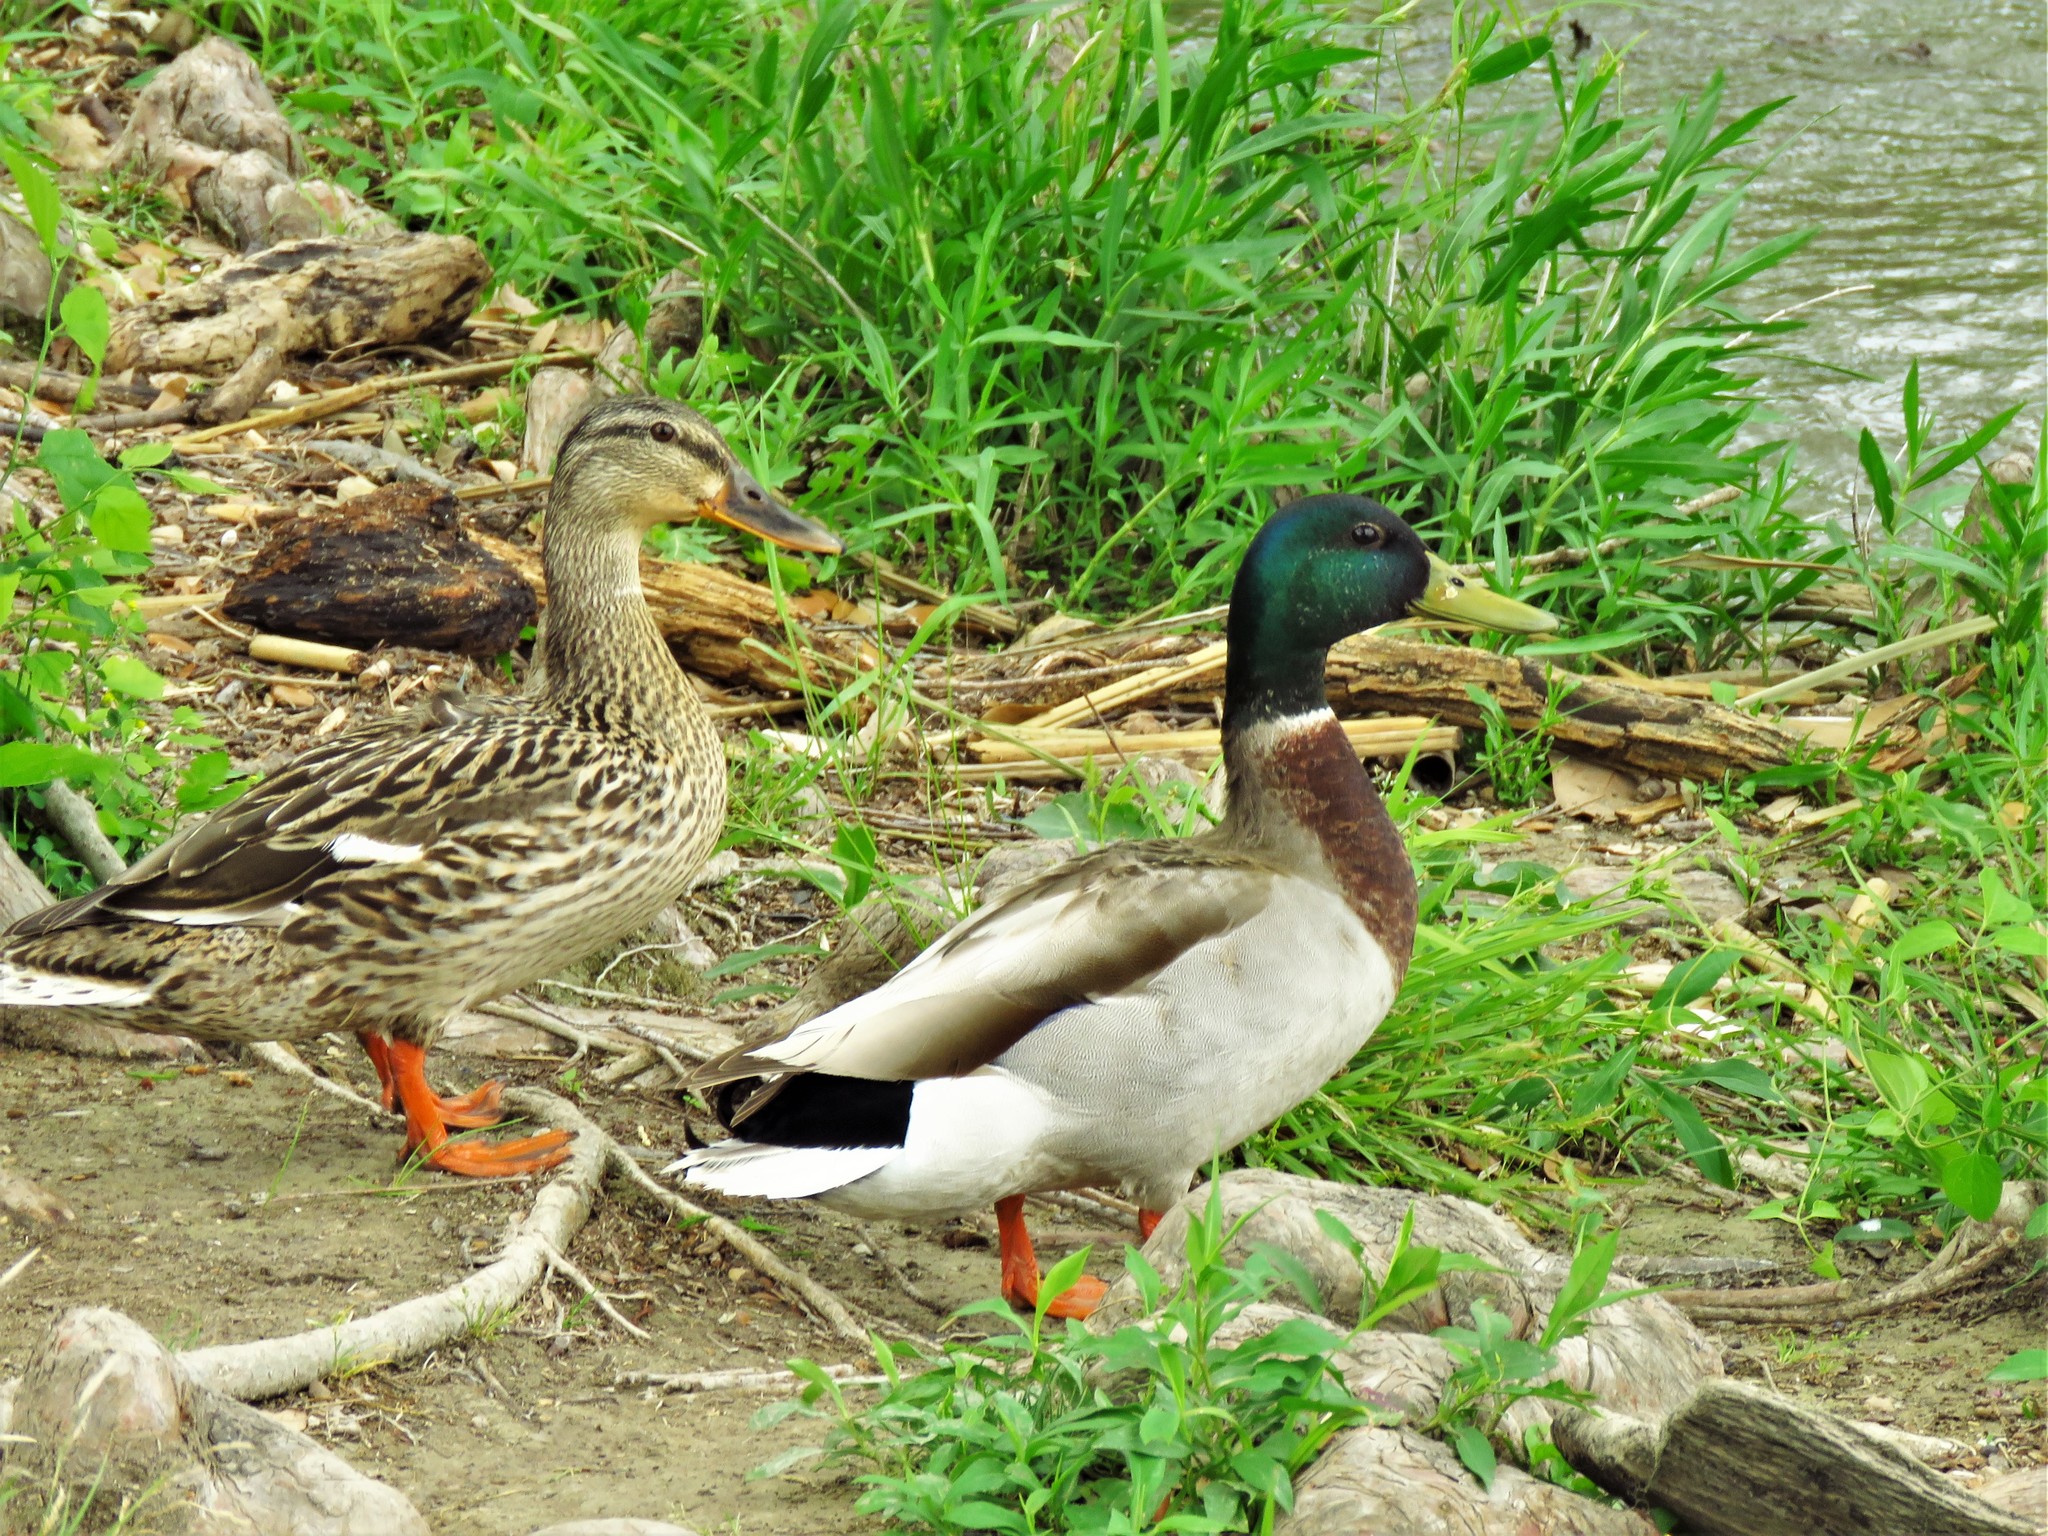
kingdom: Animalia
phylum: Chordata
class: Aves
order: Anseriformes
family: Anatidae
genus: Anas
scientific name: Anas platyrhynchos
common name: Mallard
